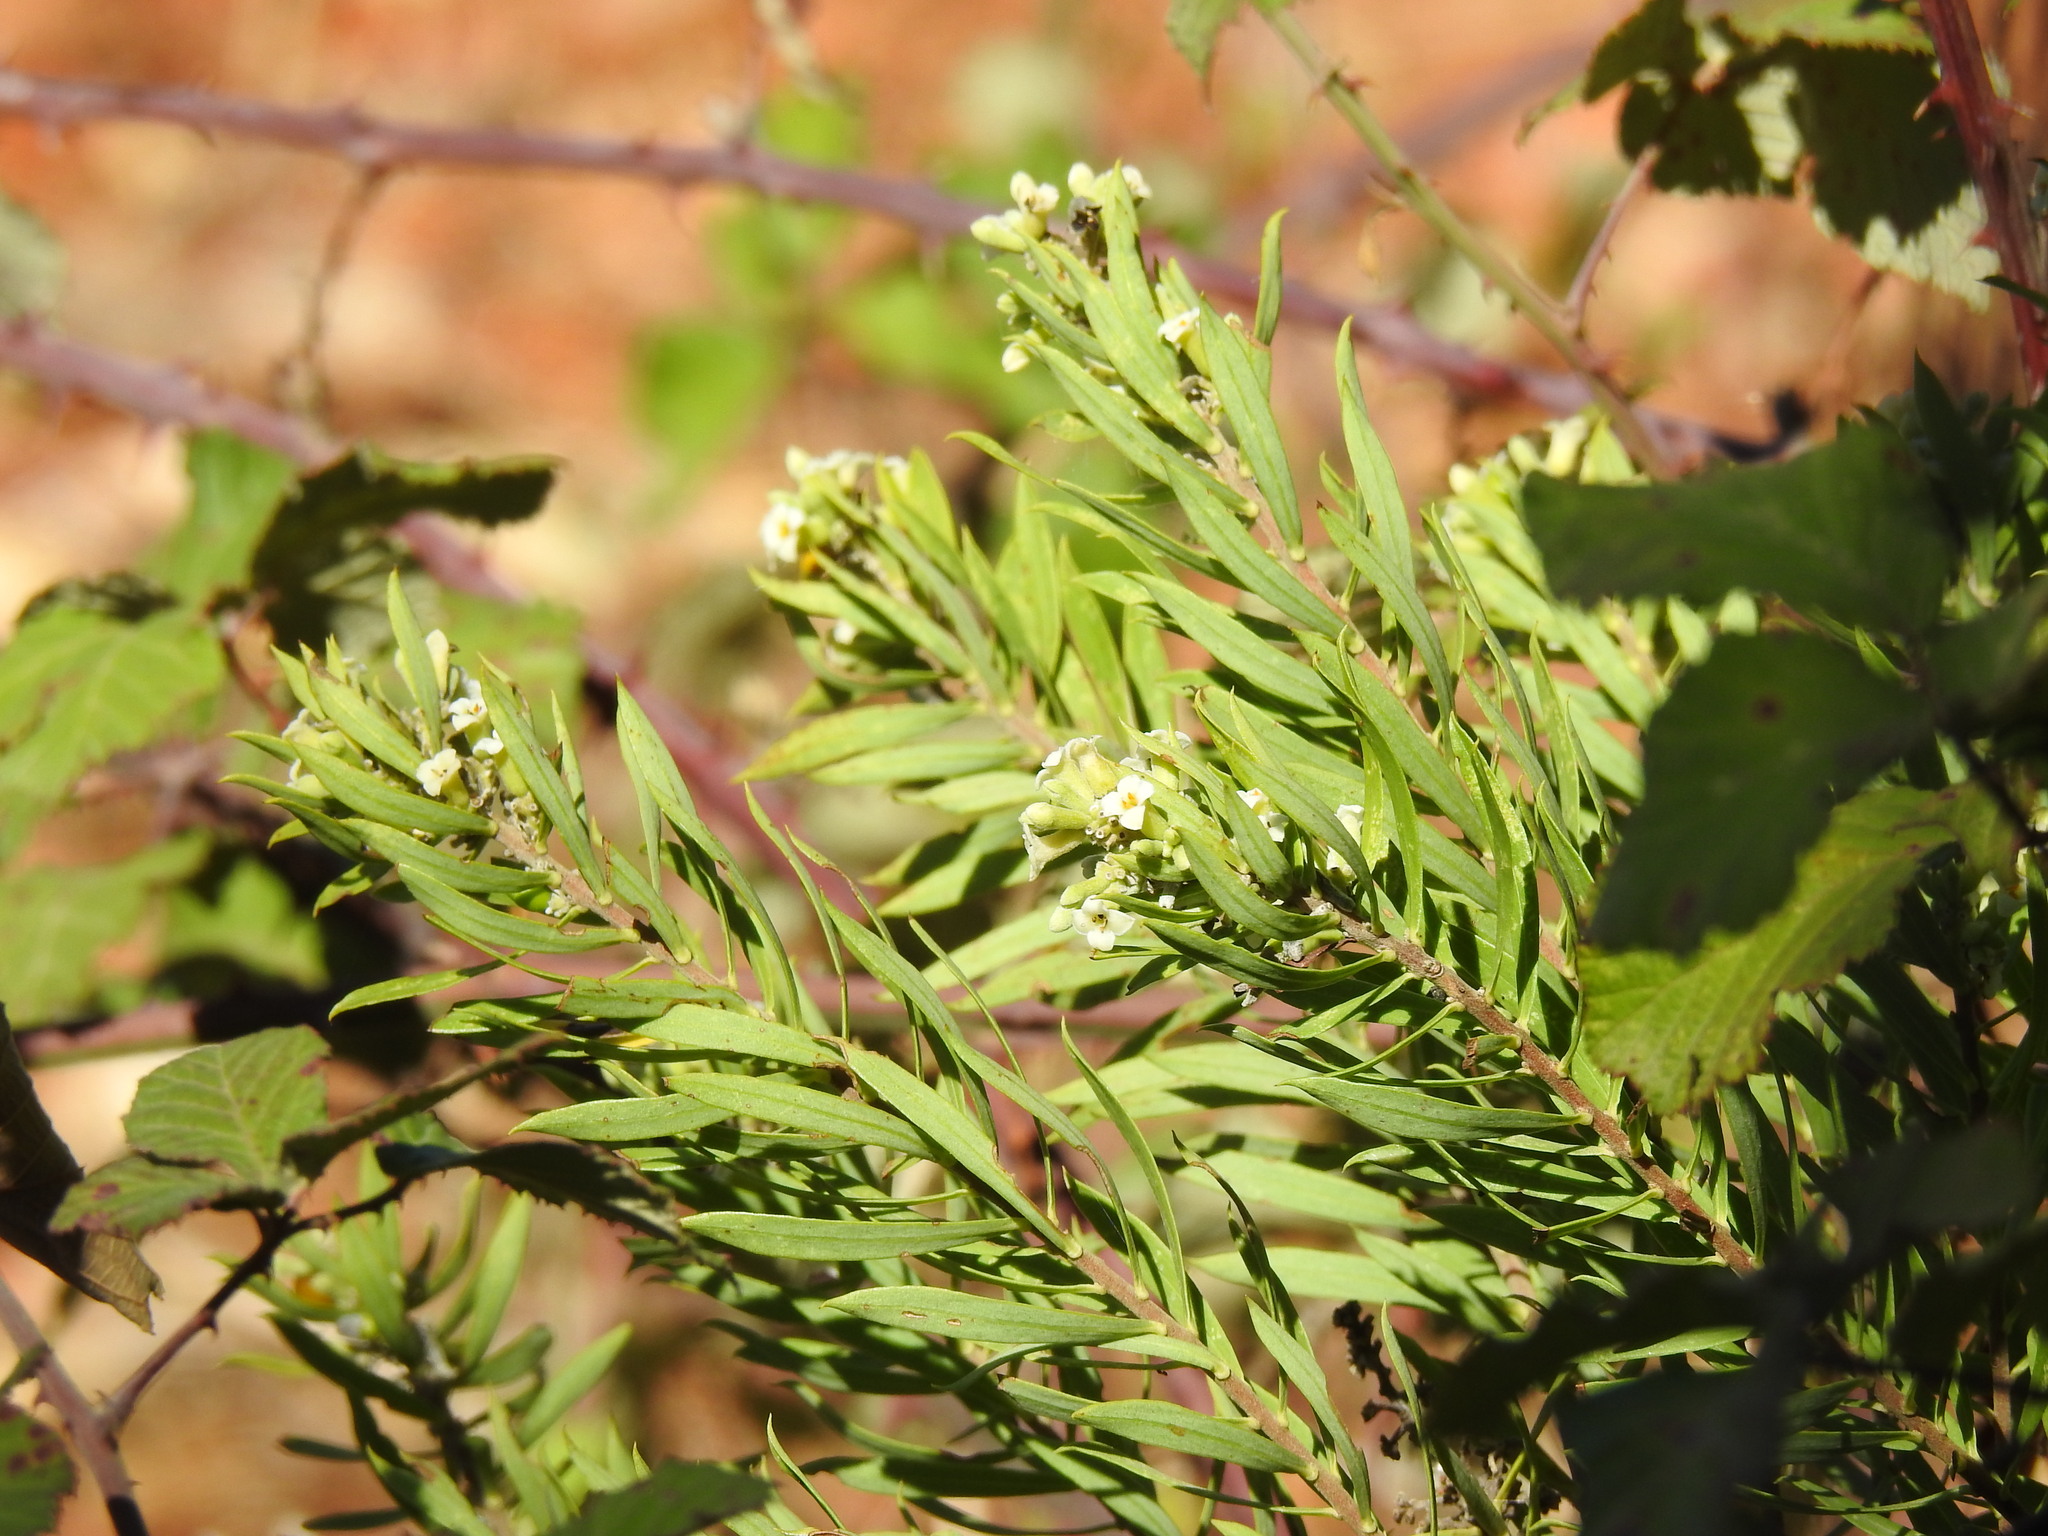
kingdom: Plantae
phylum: Tracheophyta
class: Magnoliopsida
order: Malvales
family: Thymelaeaceae
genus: Daphne
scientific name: Daphne gnidium
